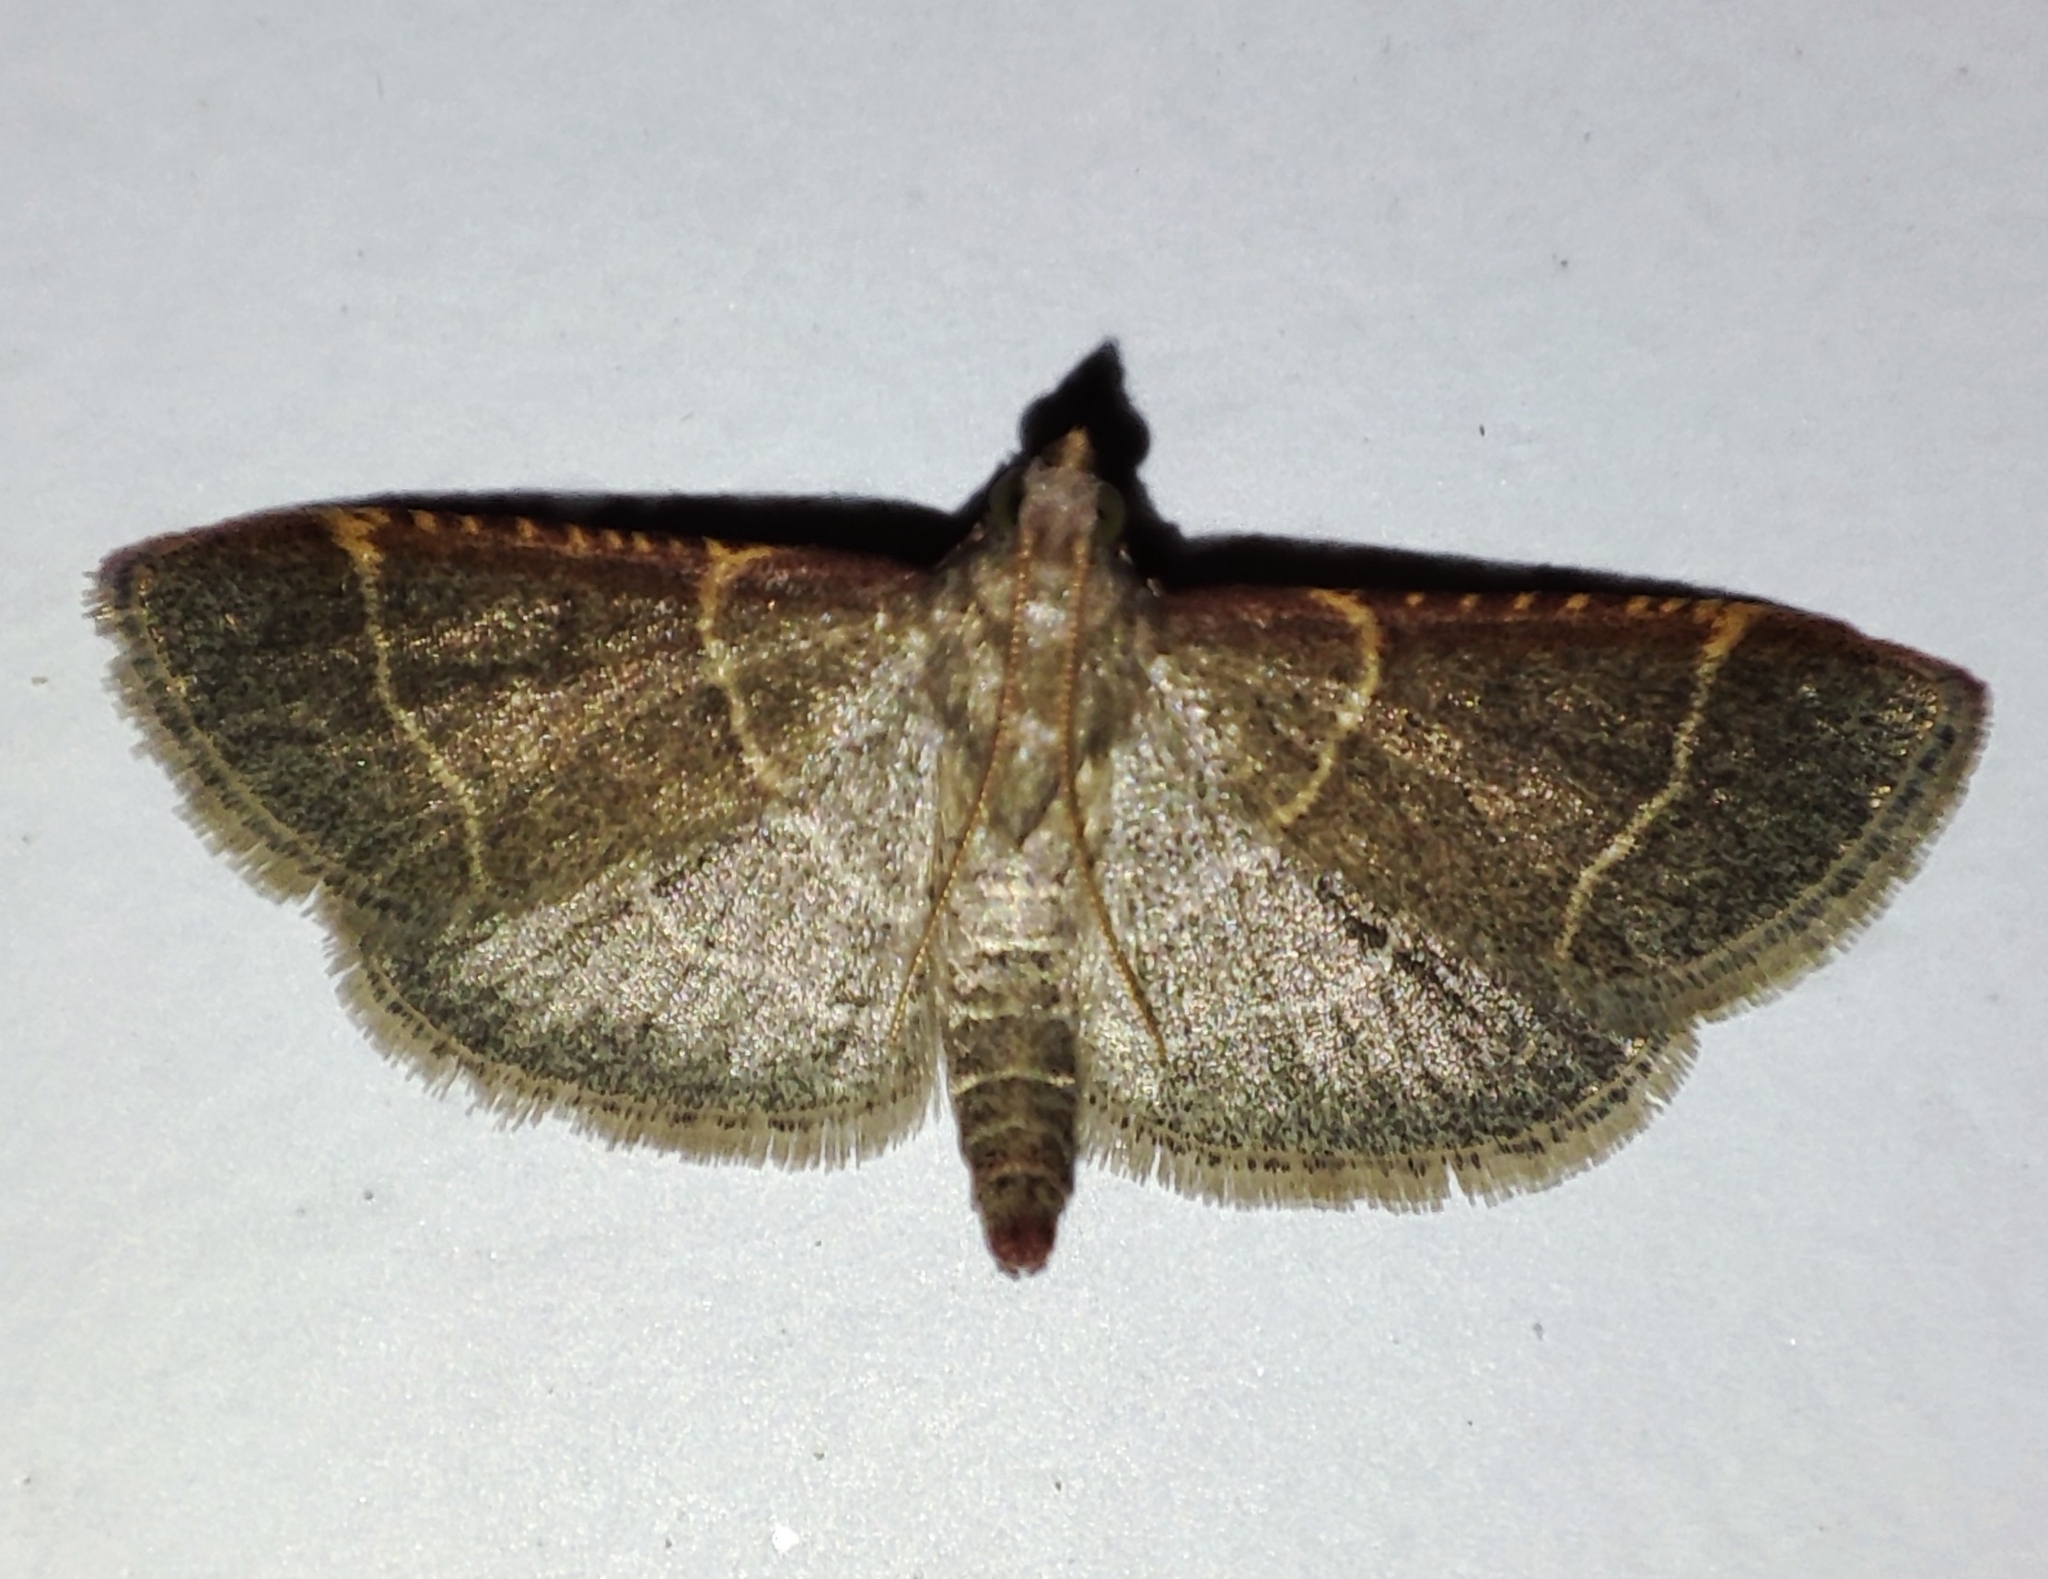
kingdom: Animalia
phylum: Arthropoda
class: Insecta
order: Lepidoptera
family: Pyralidae
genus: Hypsopygia
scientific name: Hypsopygia glaucinalis
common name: Double-striped tabby
